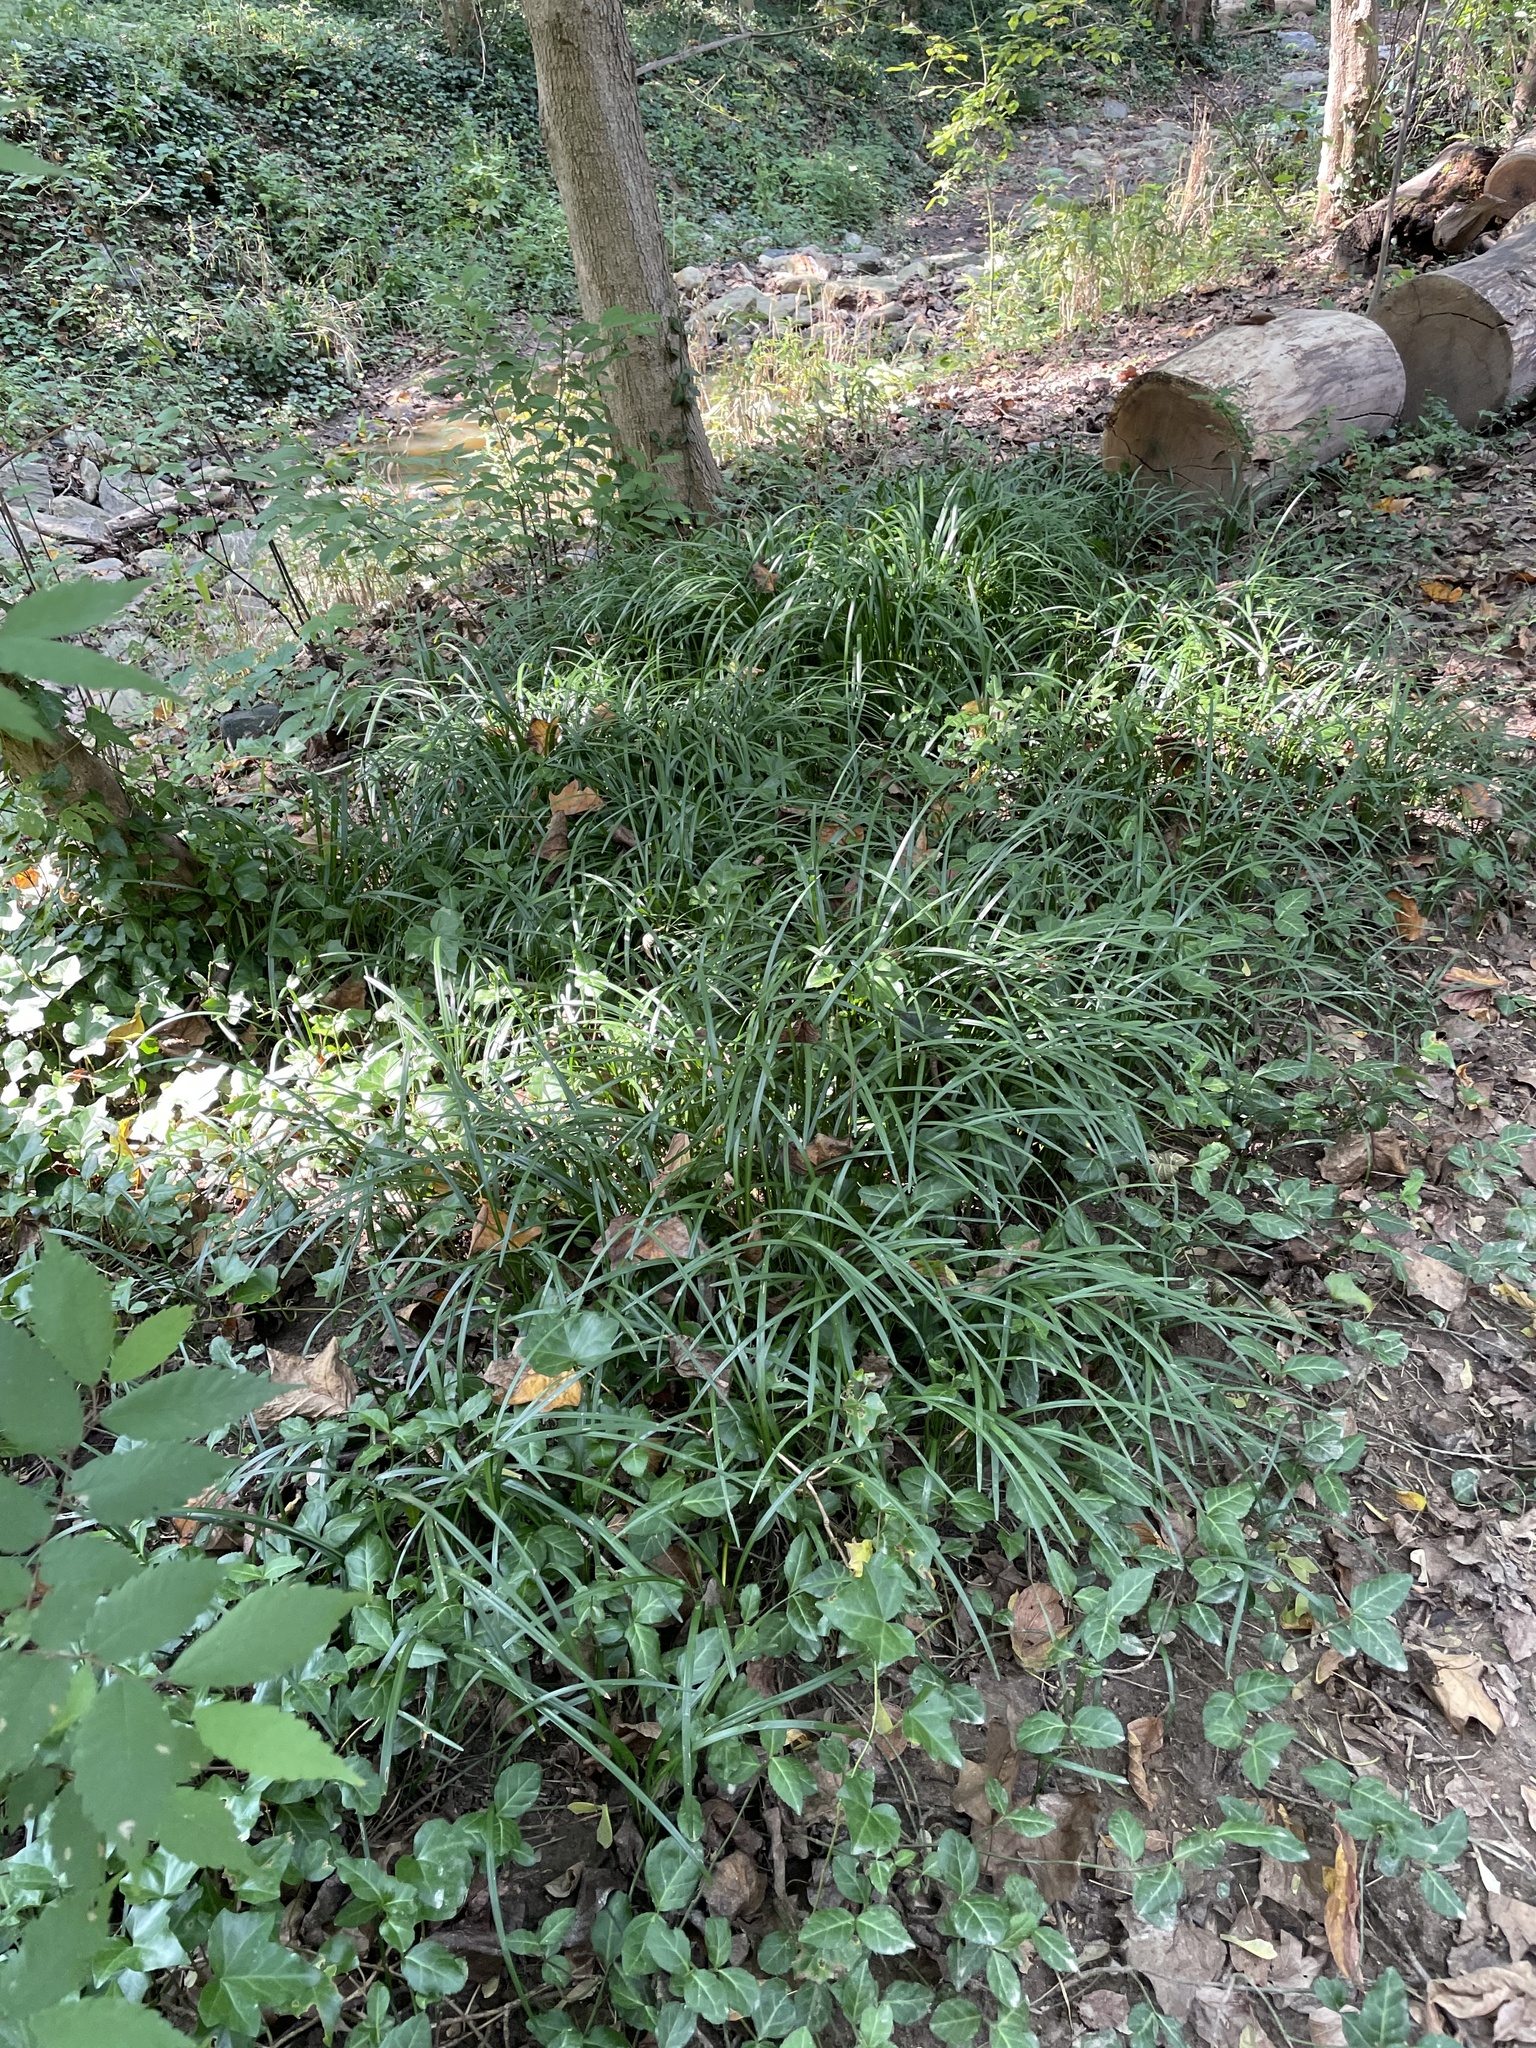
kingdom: Plantae
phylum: Tracheophyta
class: Liliopsida
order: Asparagales
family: Asparagaceae
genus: Liriope
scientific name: Liriope spicata
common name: Creeping liriope
